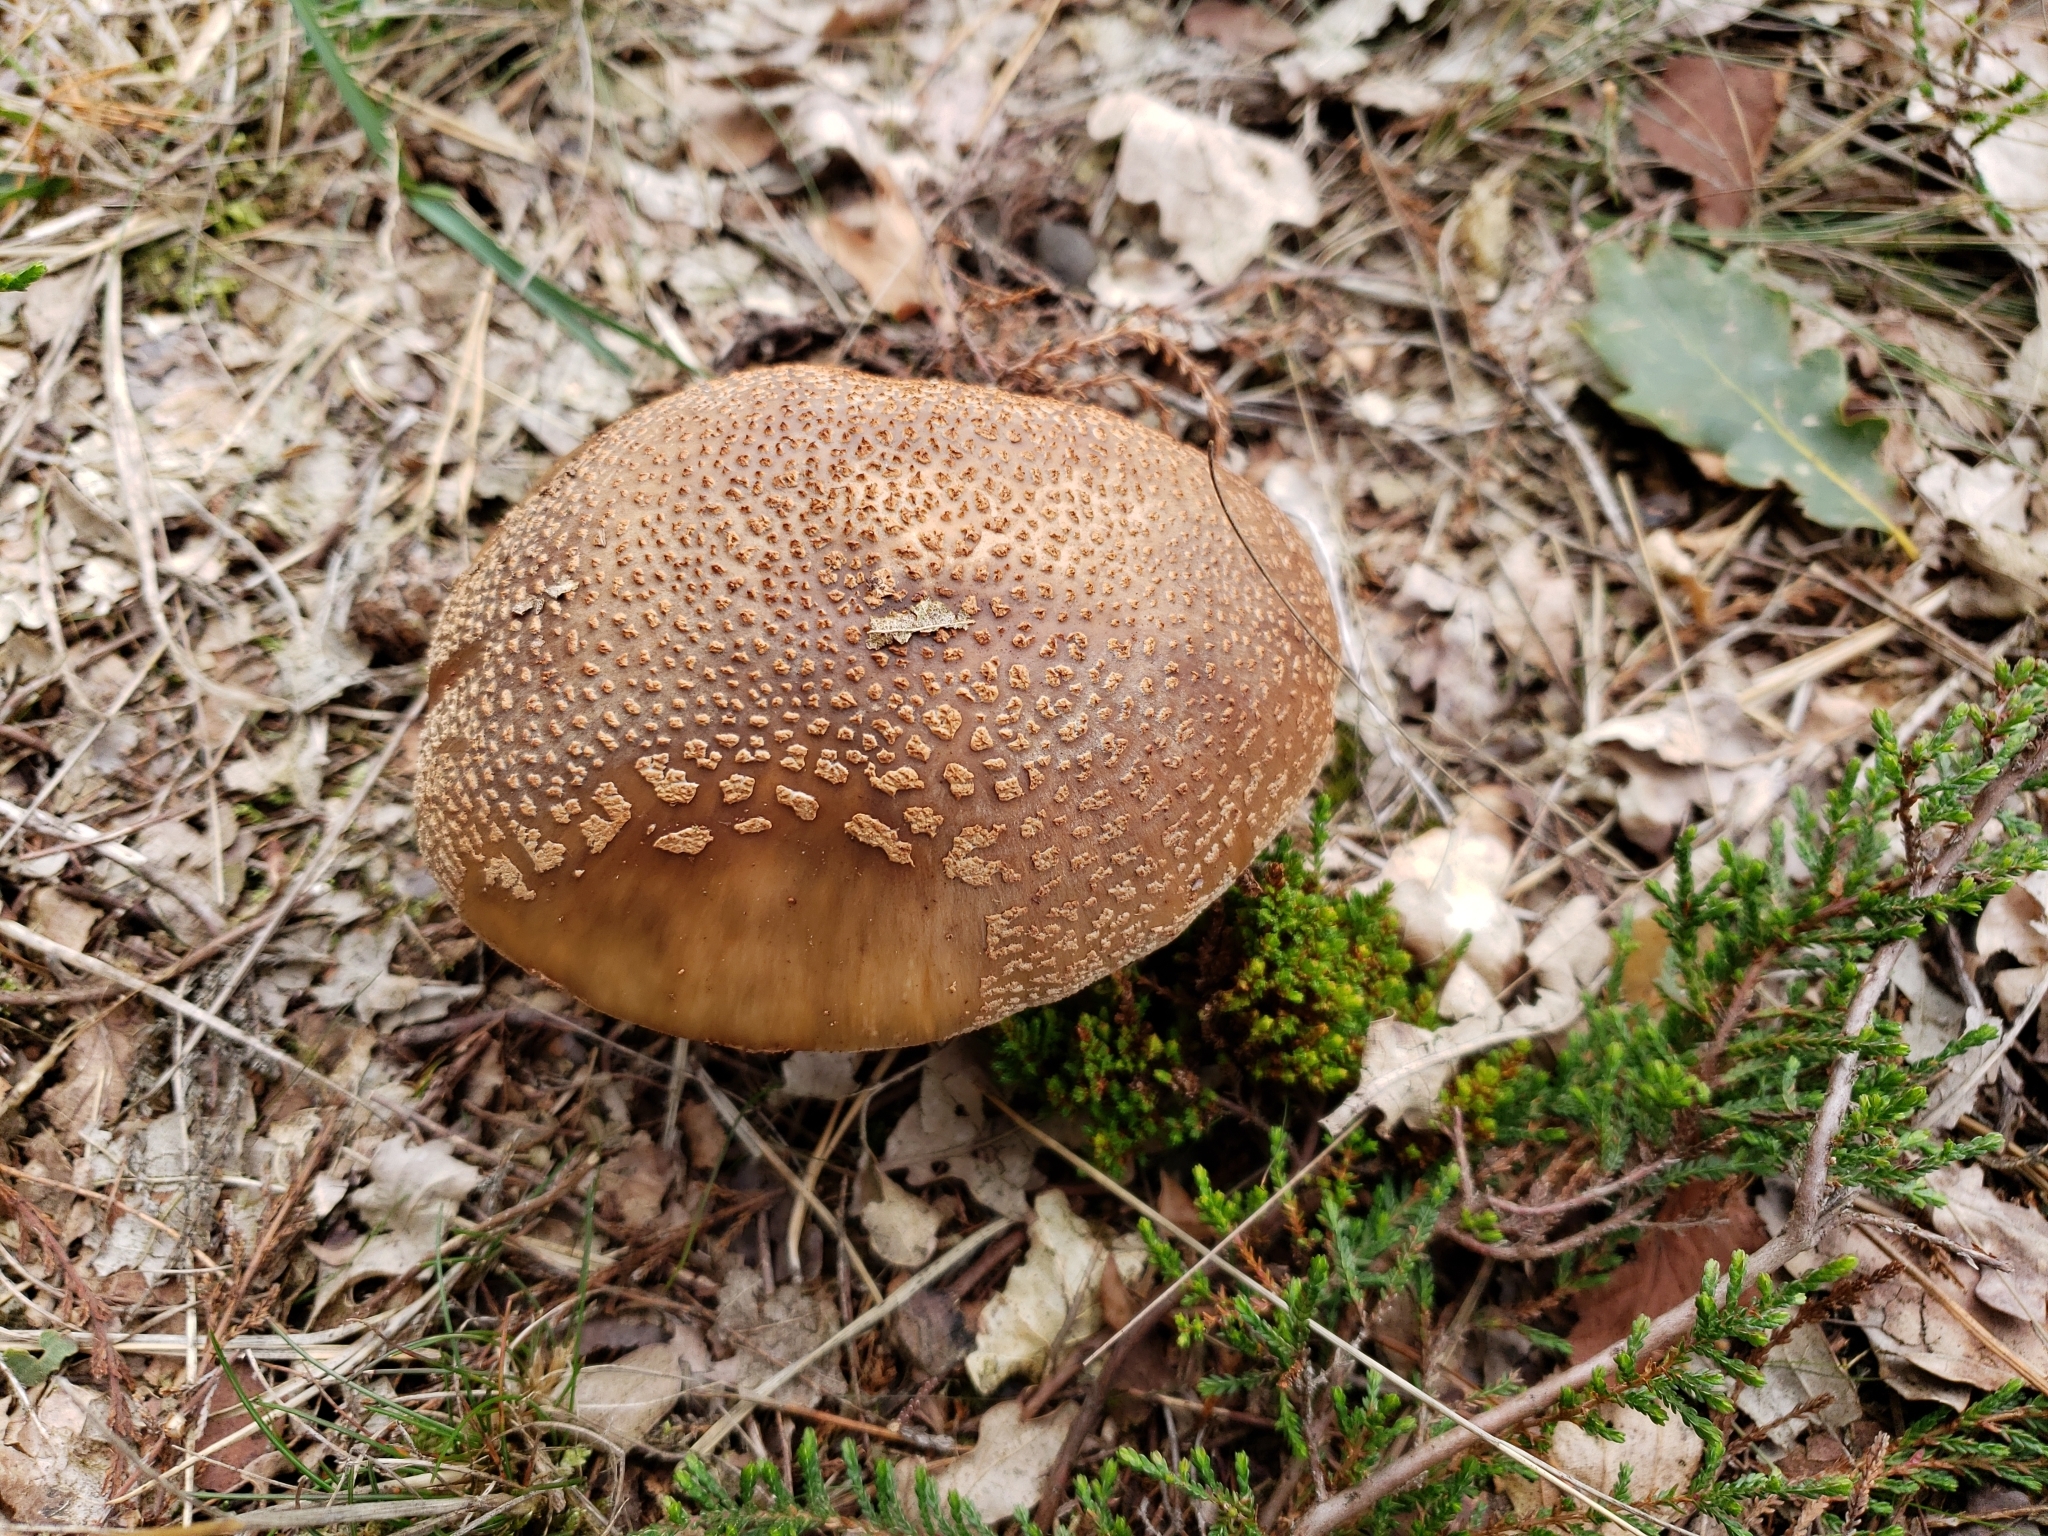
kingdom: Fungi
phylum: Basidiomycota
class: Agaricomycetes
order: Agaricales
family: Amanitaceae
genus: Amanita
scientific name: Amanita rubescens
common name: Blusher
